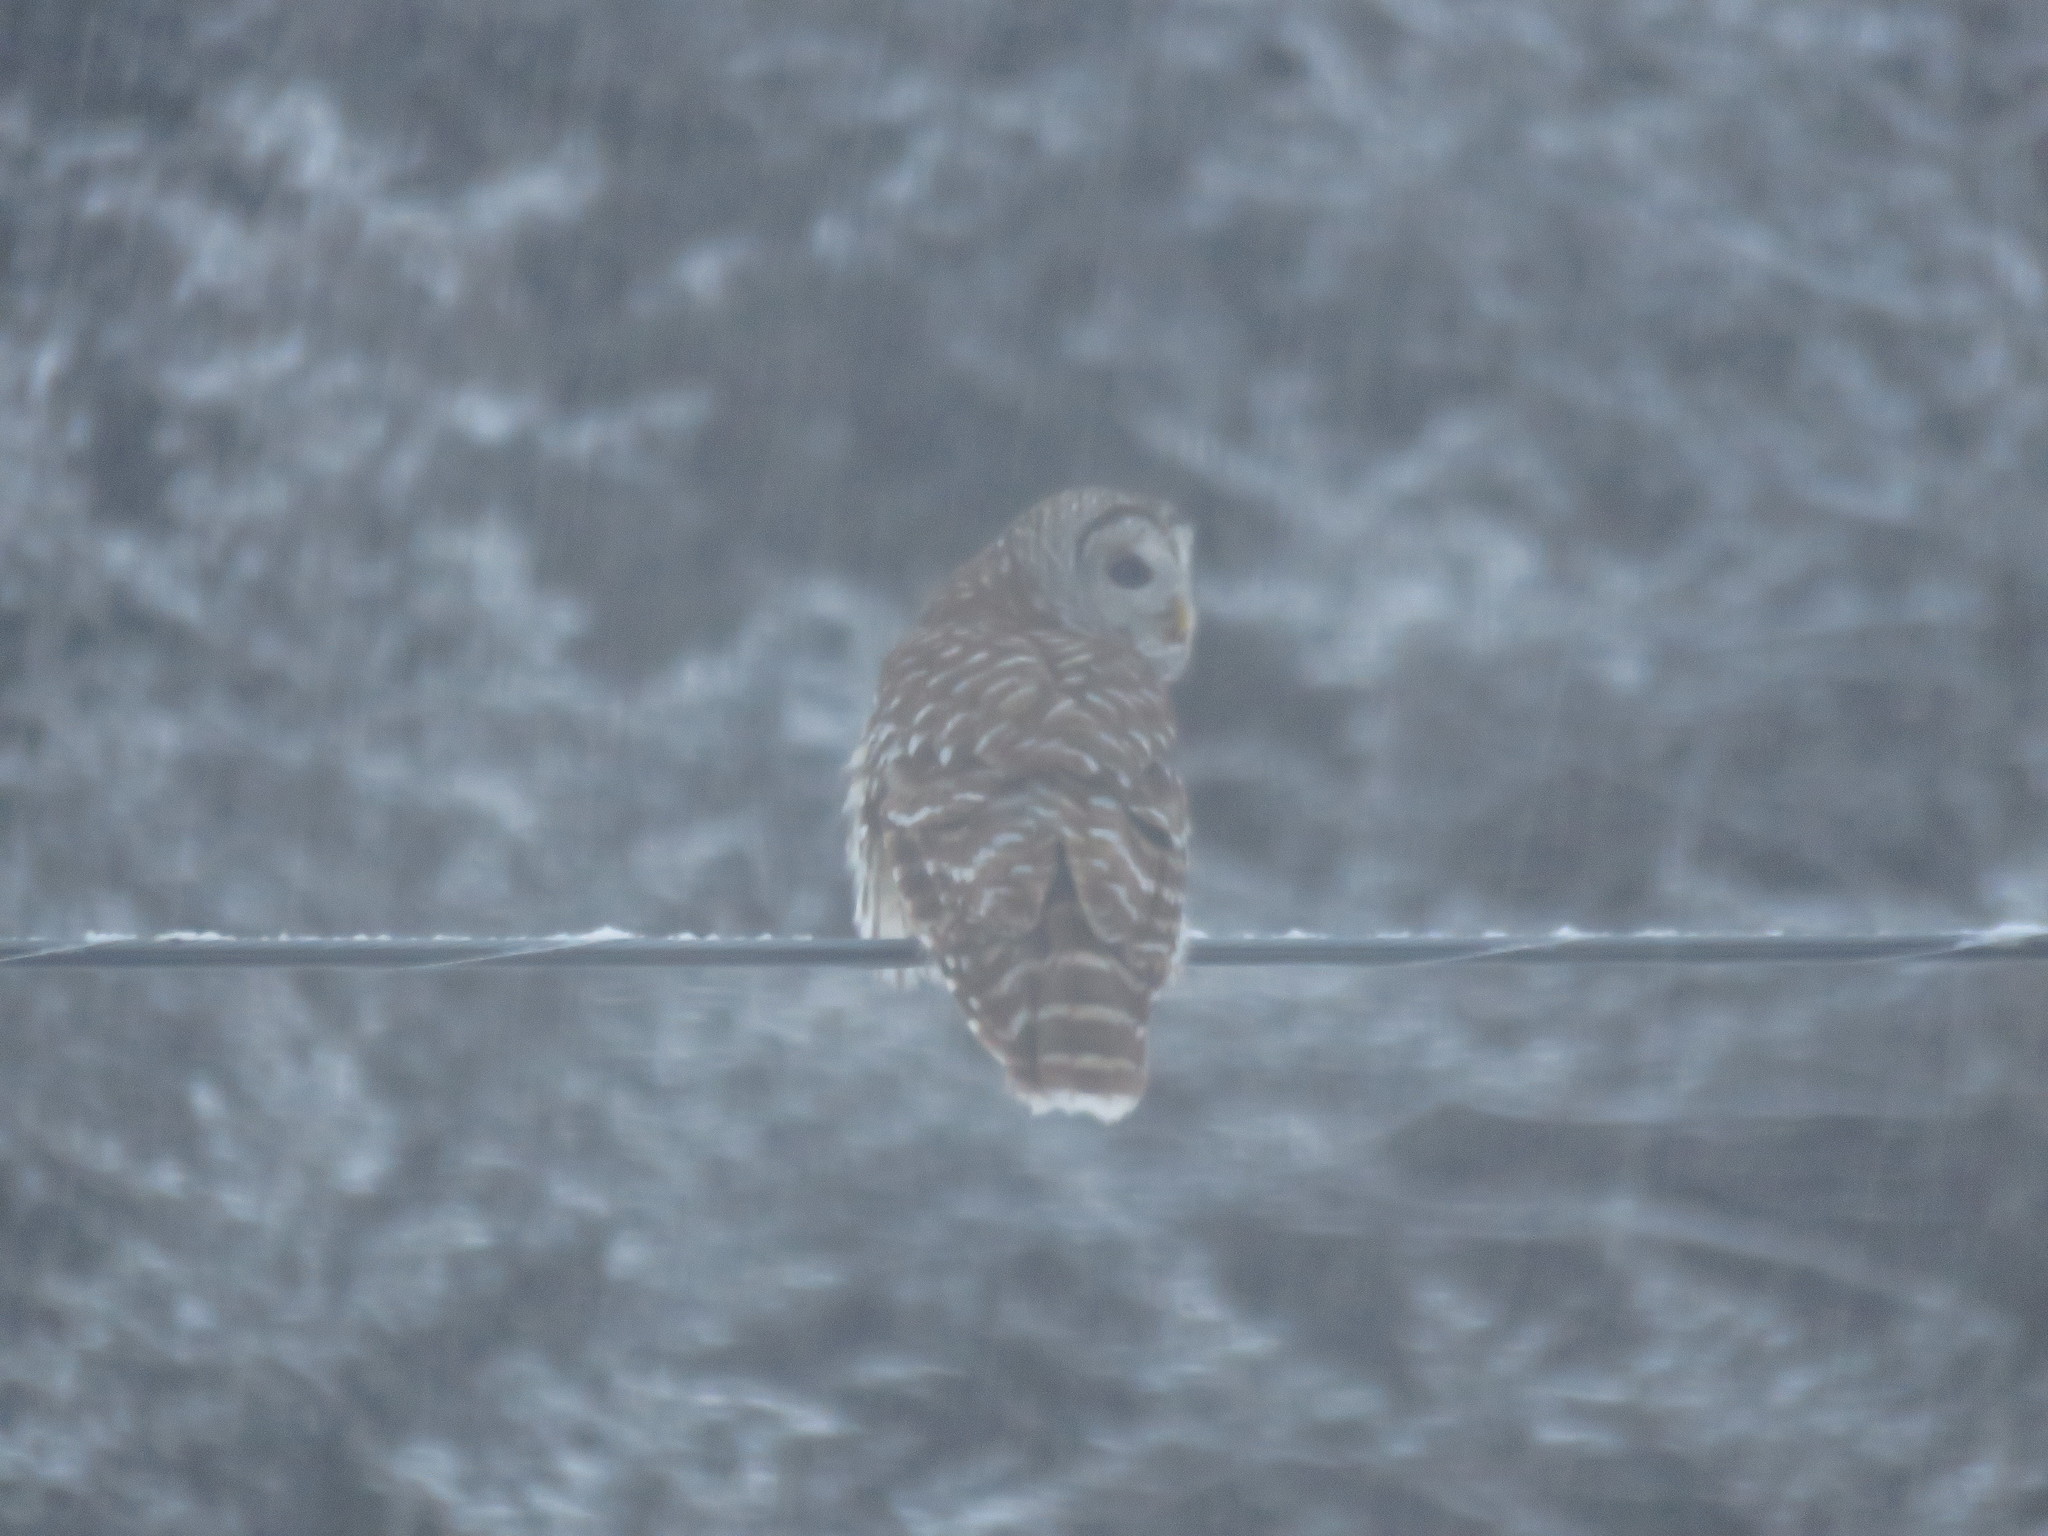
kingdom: Animalia
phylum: Chordata
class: Aves
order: Strigiformes
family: Strigidae
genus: Strix
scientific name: Strix varia
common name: Barred owl
